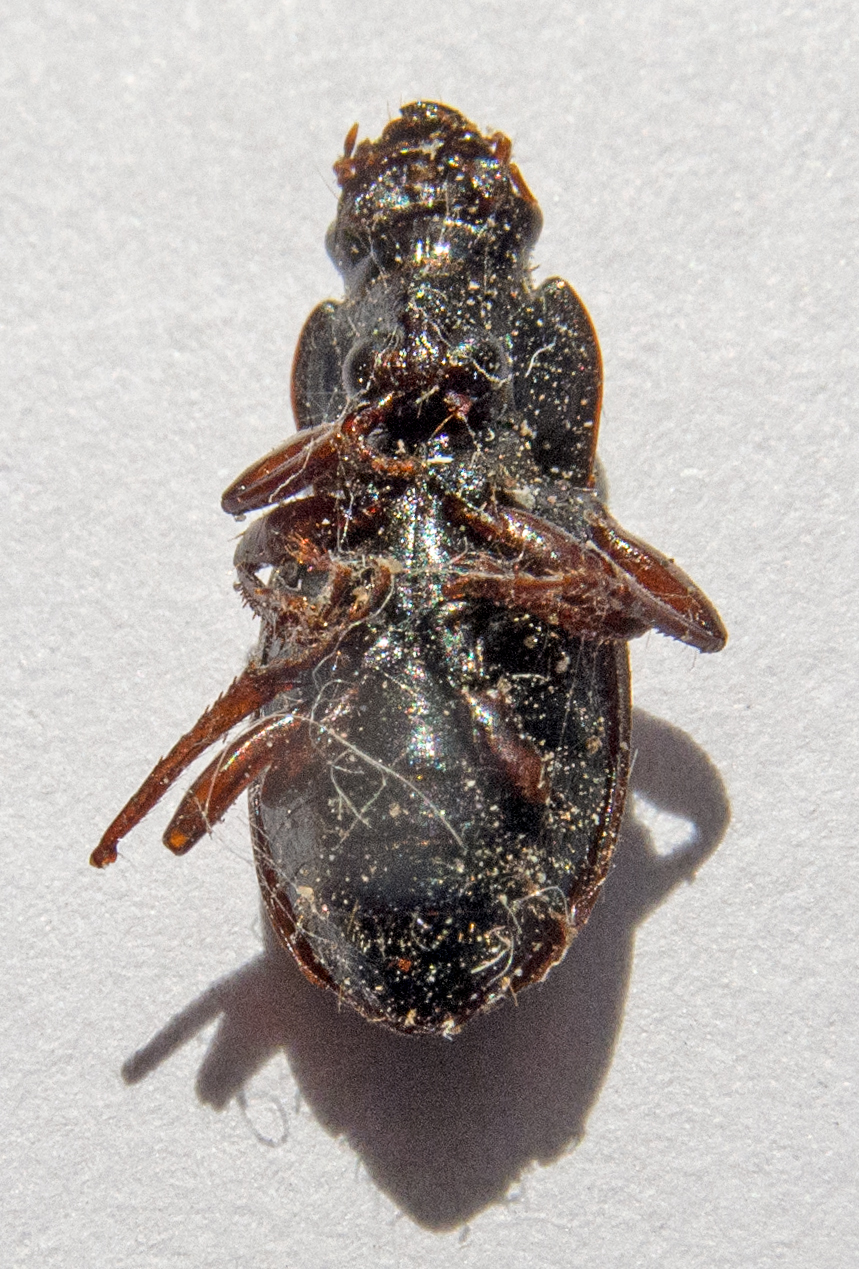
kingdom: Animalia
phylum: Arthropoda
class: Insecta
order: Coleoptera
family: Carabidae
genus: Harpalus
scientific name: Harpalus affinis
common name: Polychrome harp ground beetle
